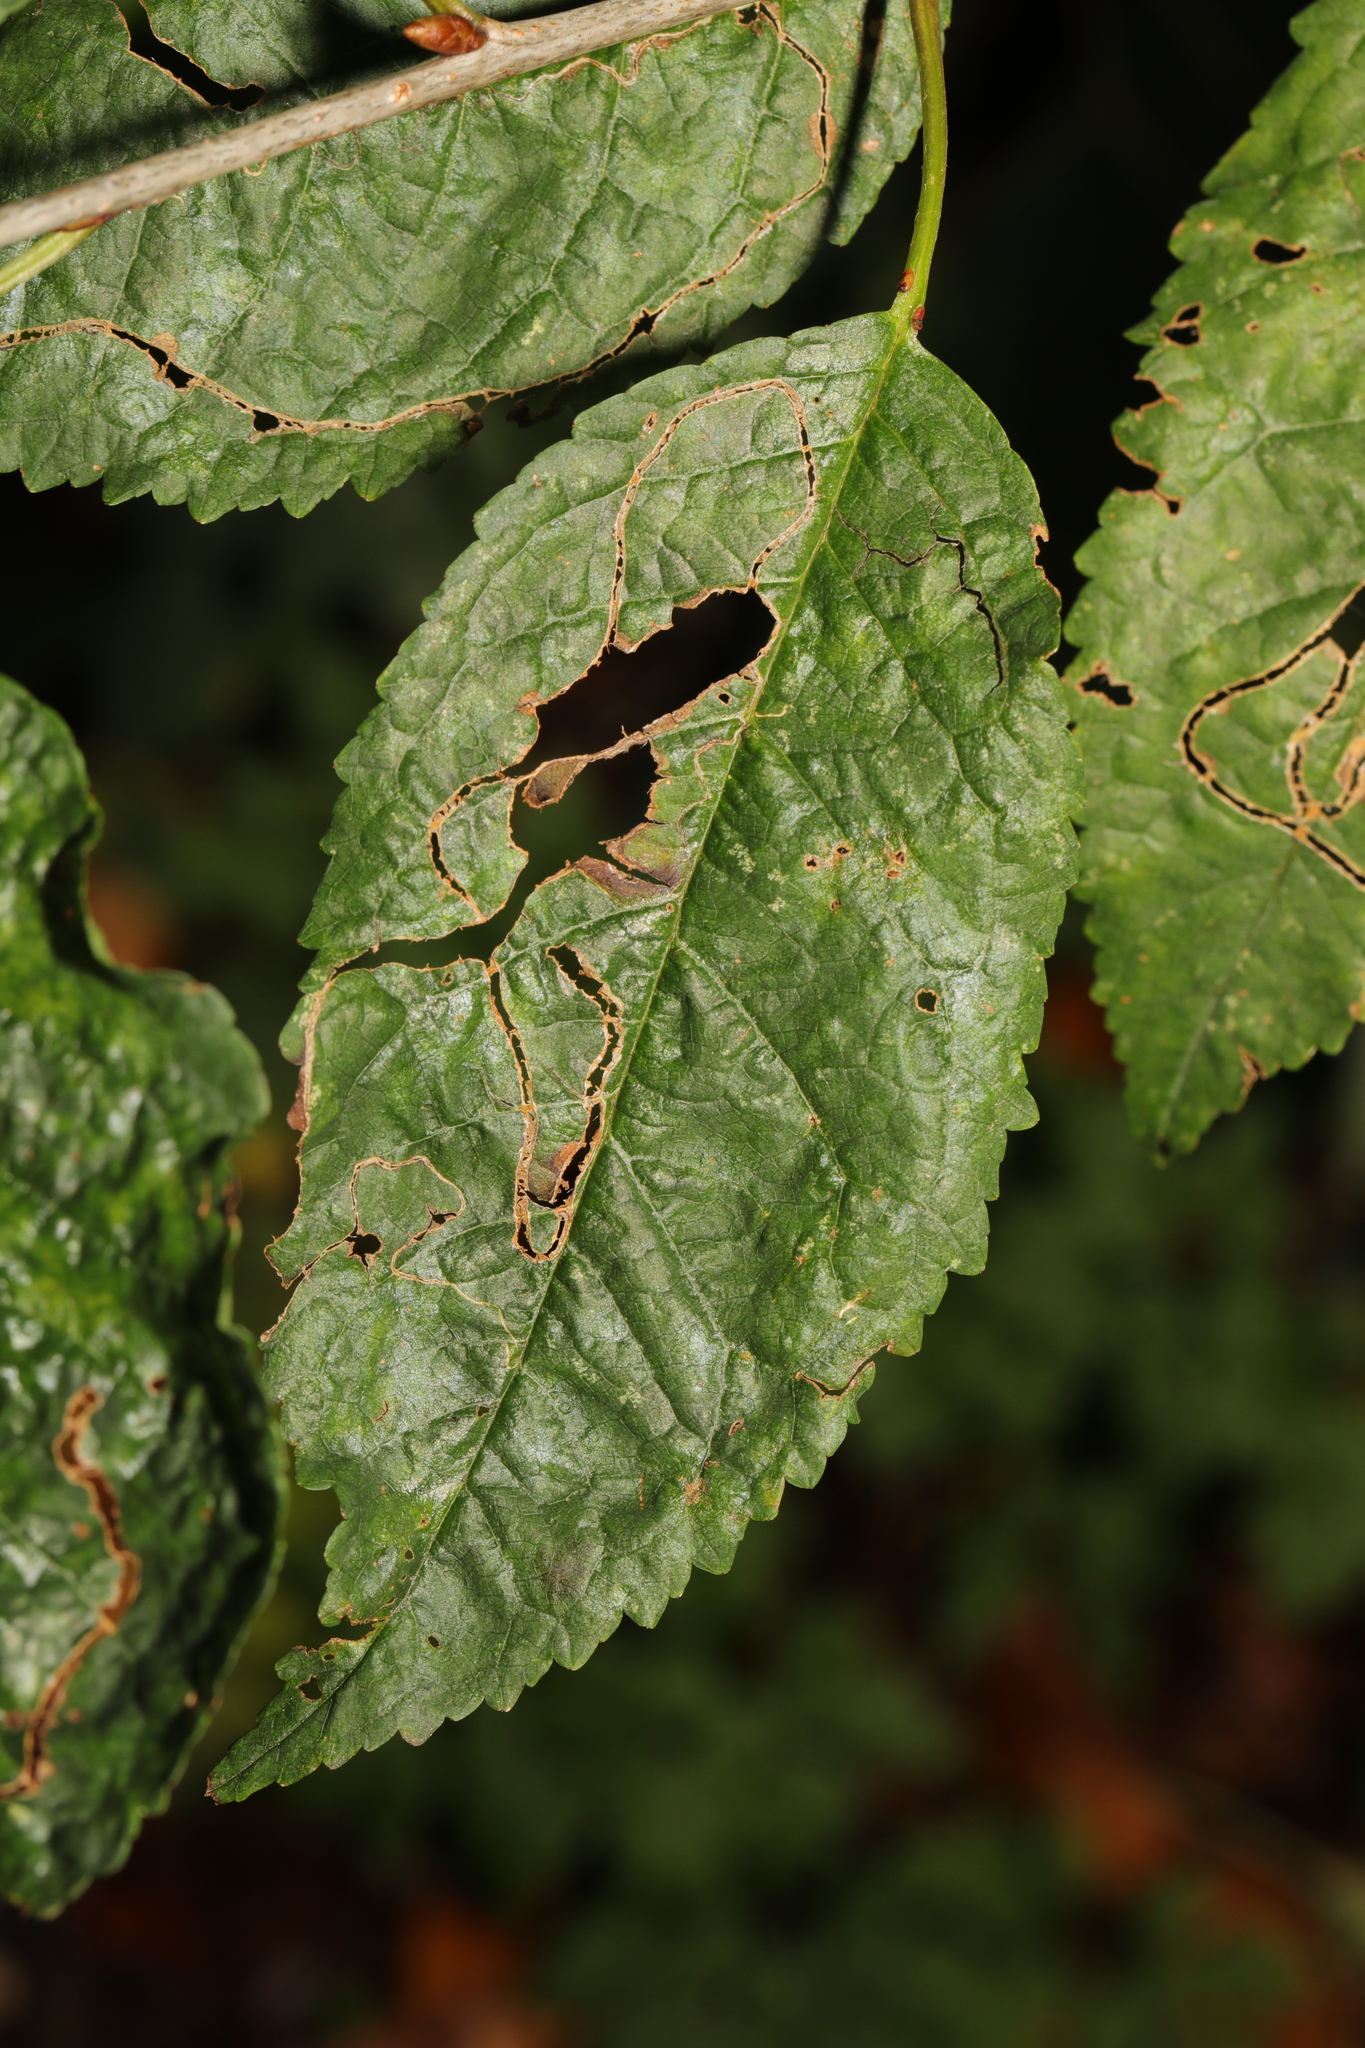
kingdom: Animalia
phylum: Arthropoda
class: Insecta
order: Lepidoptera
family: Lyonetiidae
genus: Lyonetia
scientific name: Lyonetia clerkella
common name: Apple leaf miner
